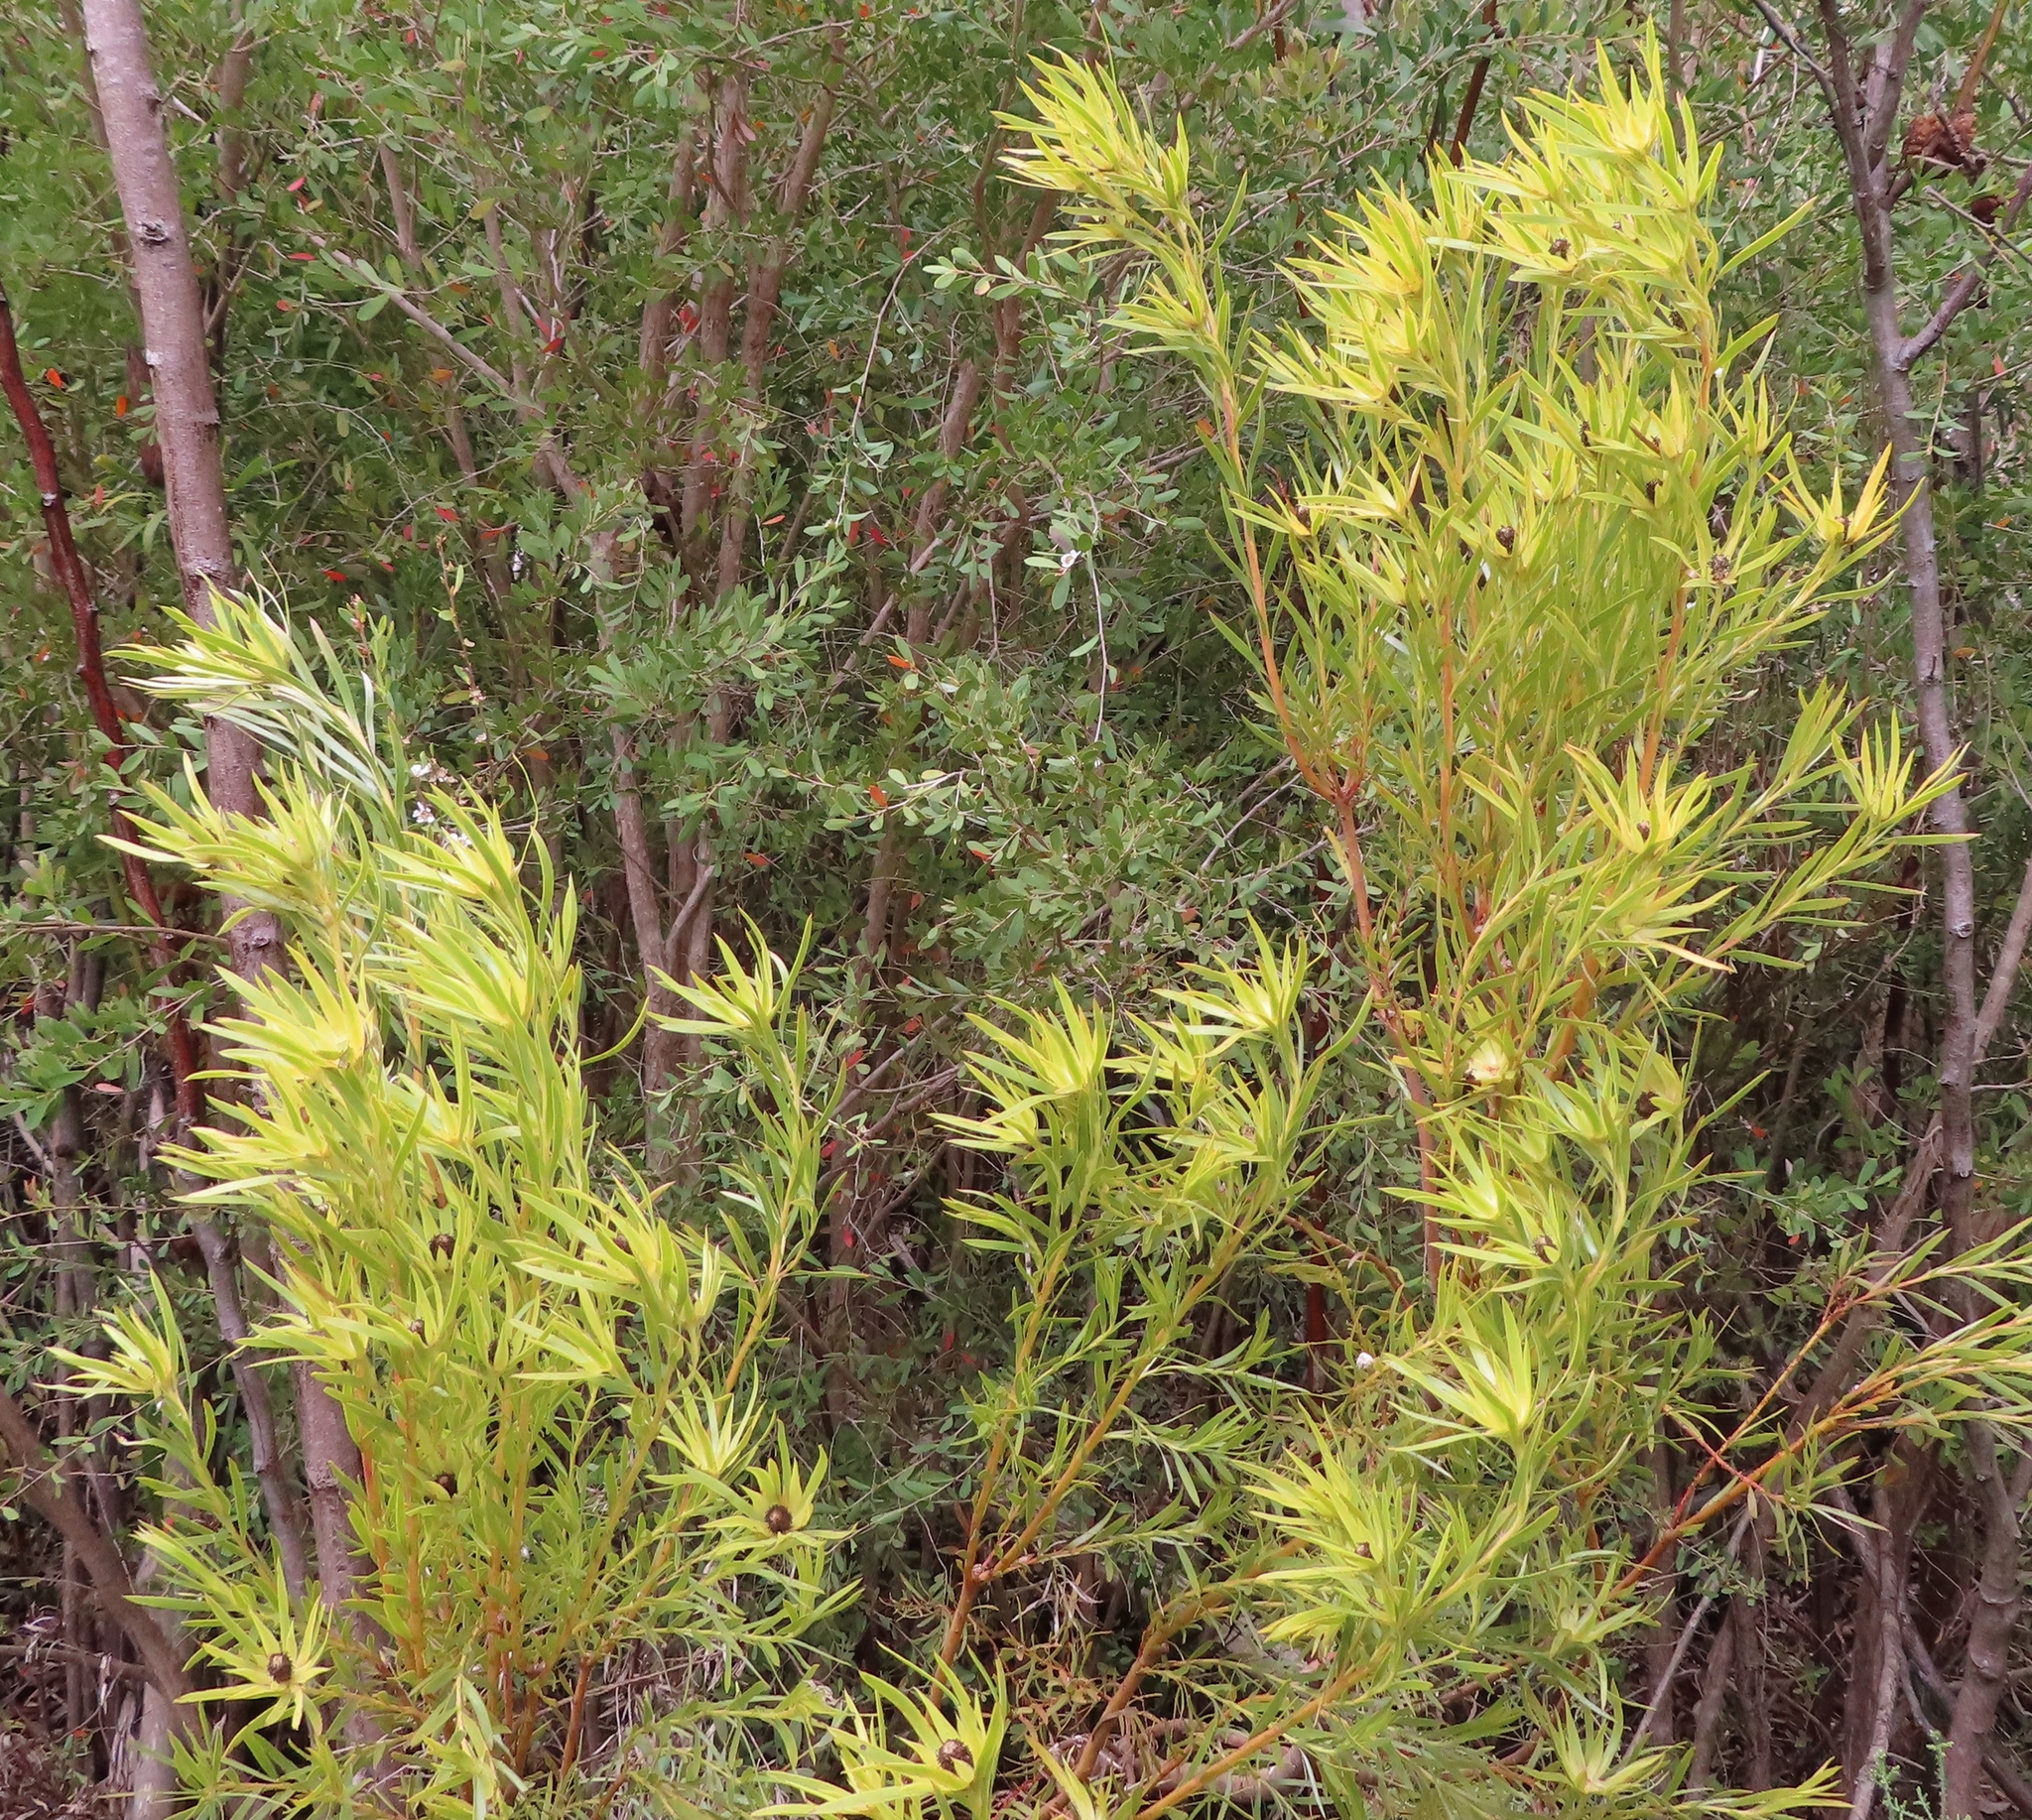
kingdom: Plantae
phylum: Tracheophyta
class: Magnoliopsida
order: Proteales
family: Proteaceae
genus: Leucadendron
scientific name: Leucadendron xanthoconus
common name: Sickle-leaf conebush
